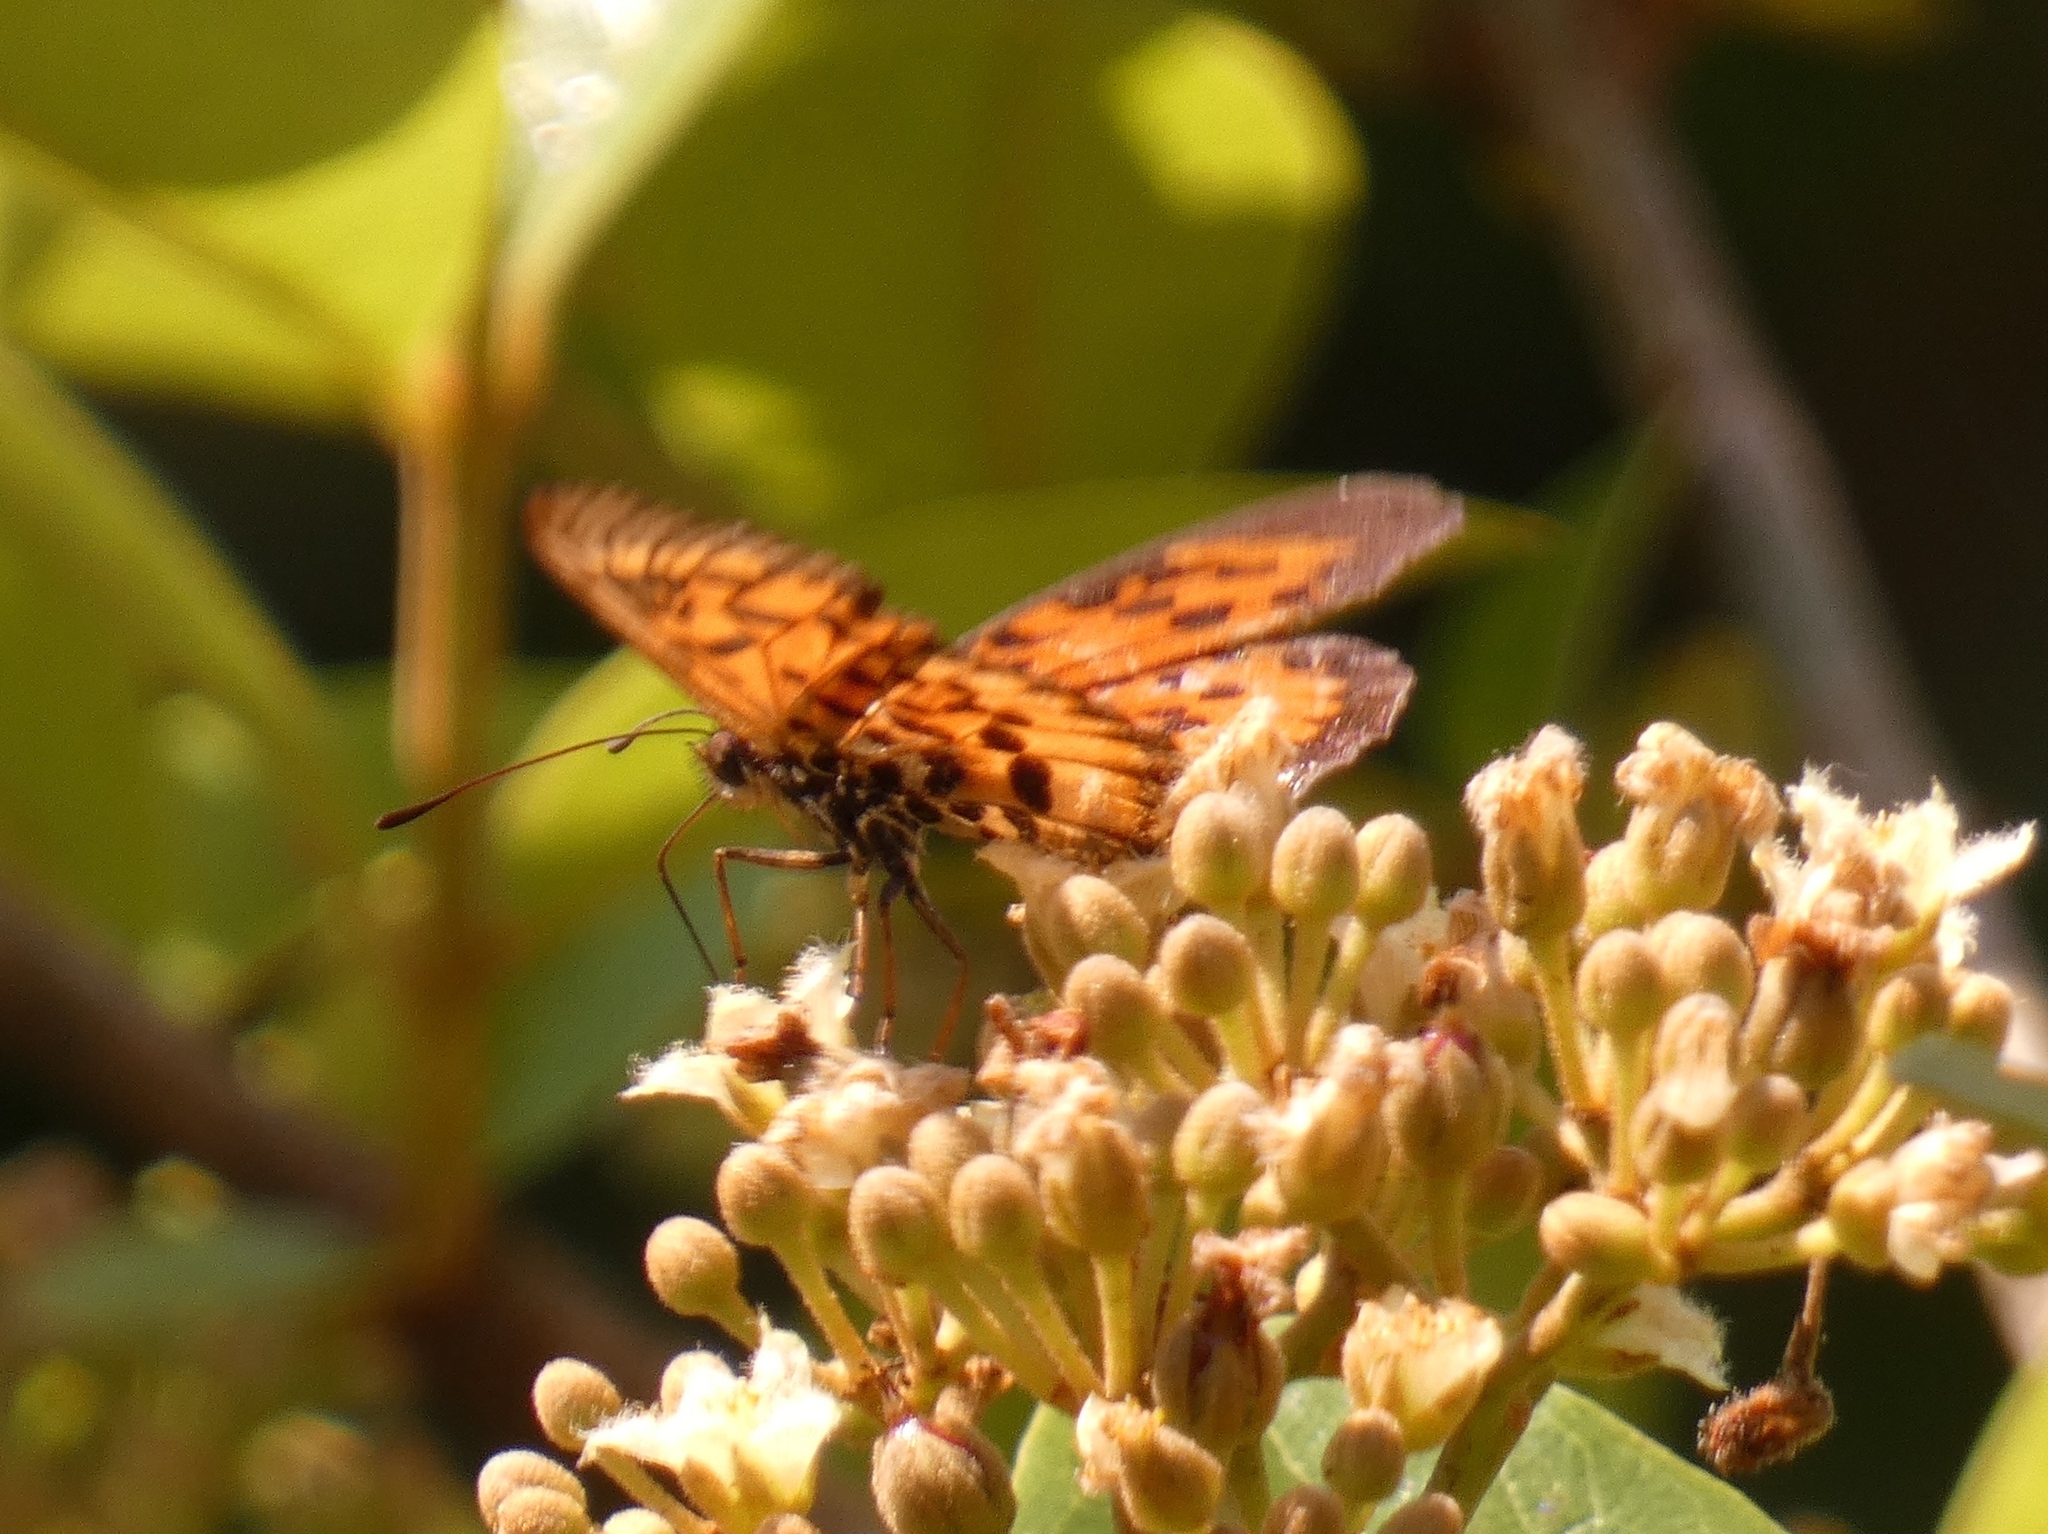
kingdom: Animalia
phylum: Arthropoda
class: Insecta
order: Lepidoptera
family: Nymphalidae
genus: Rubraea
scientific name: Rubraea
